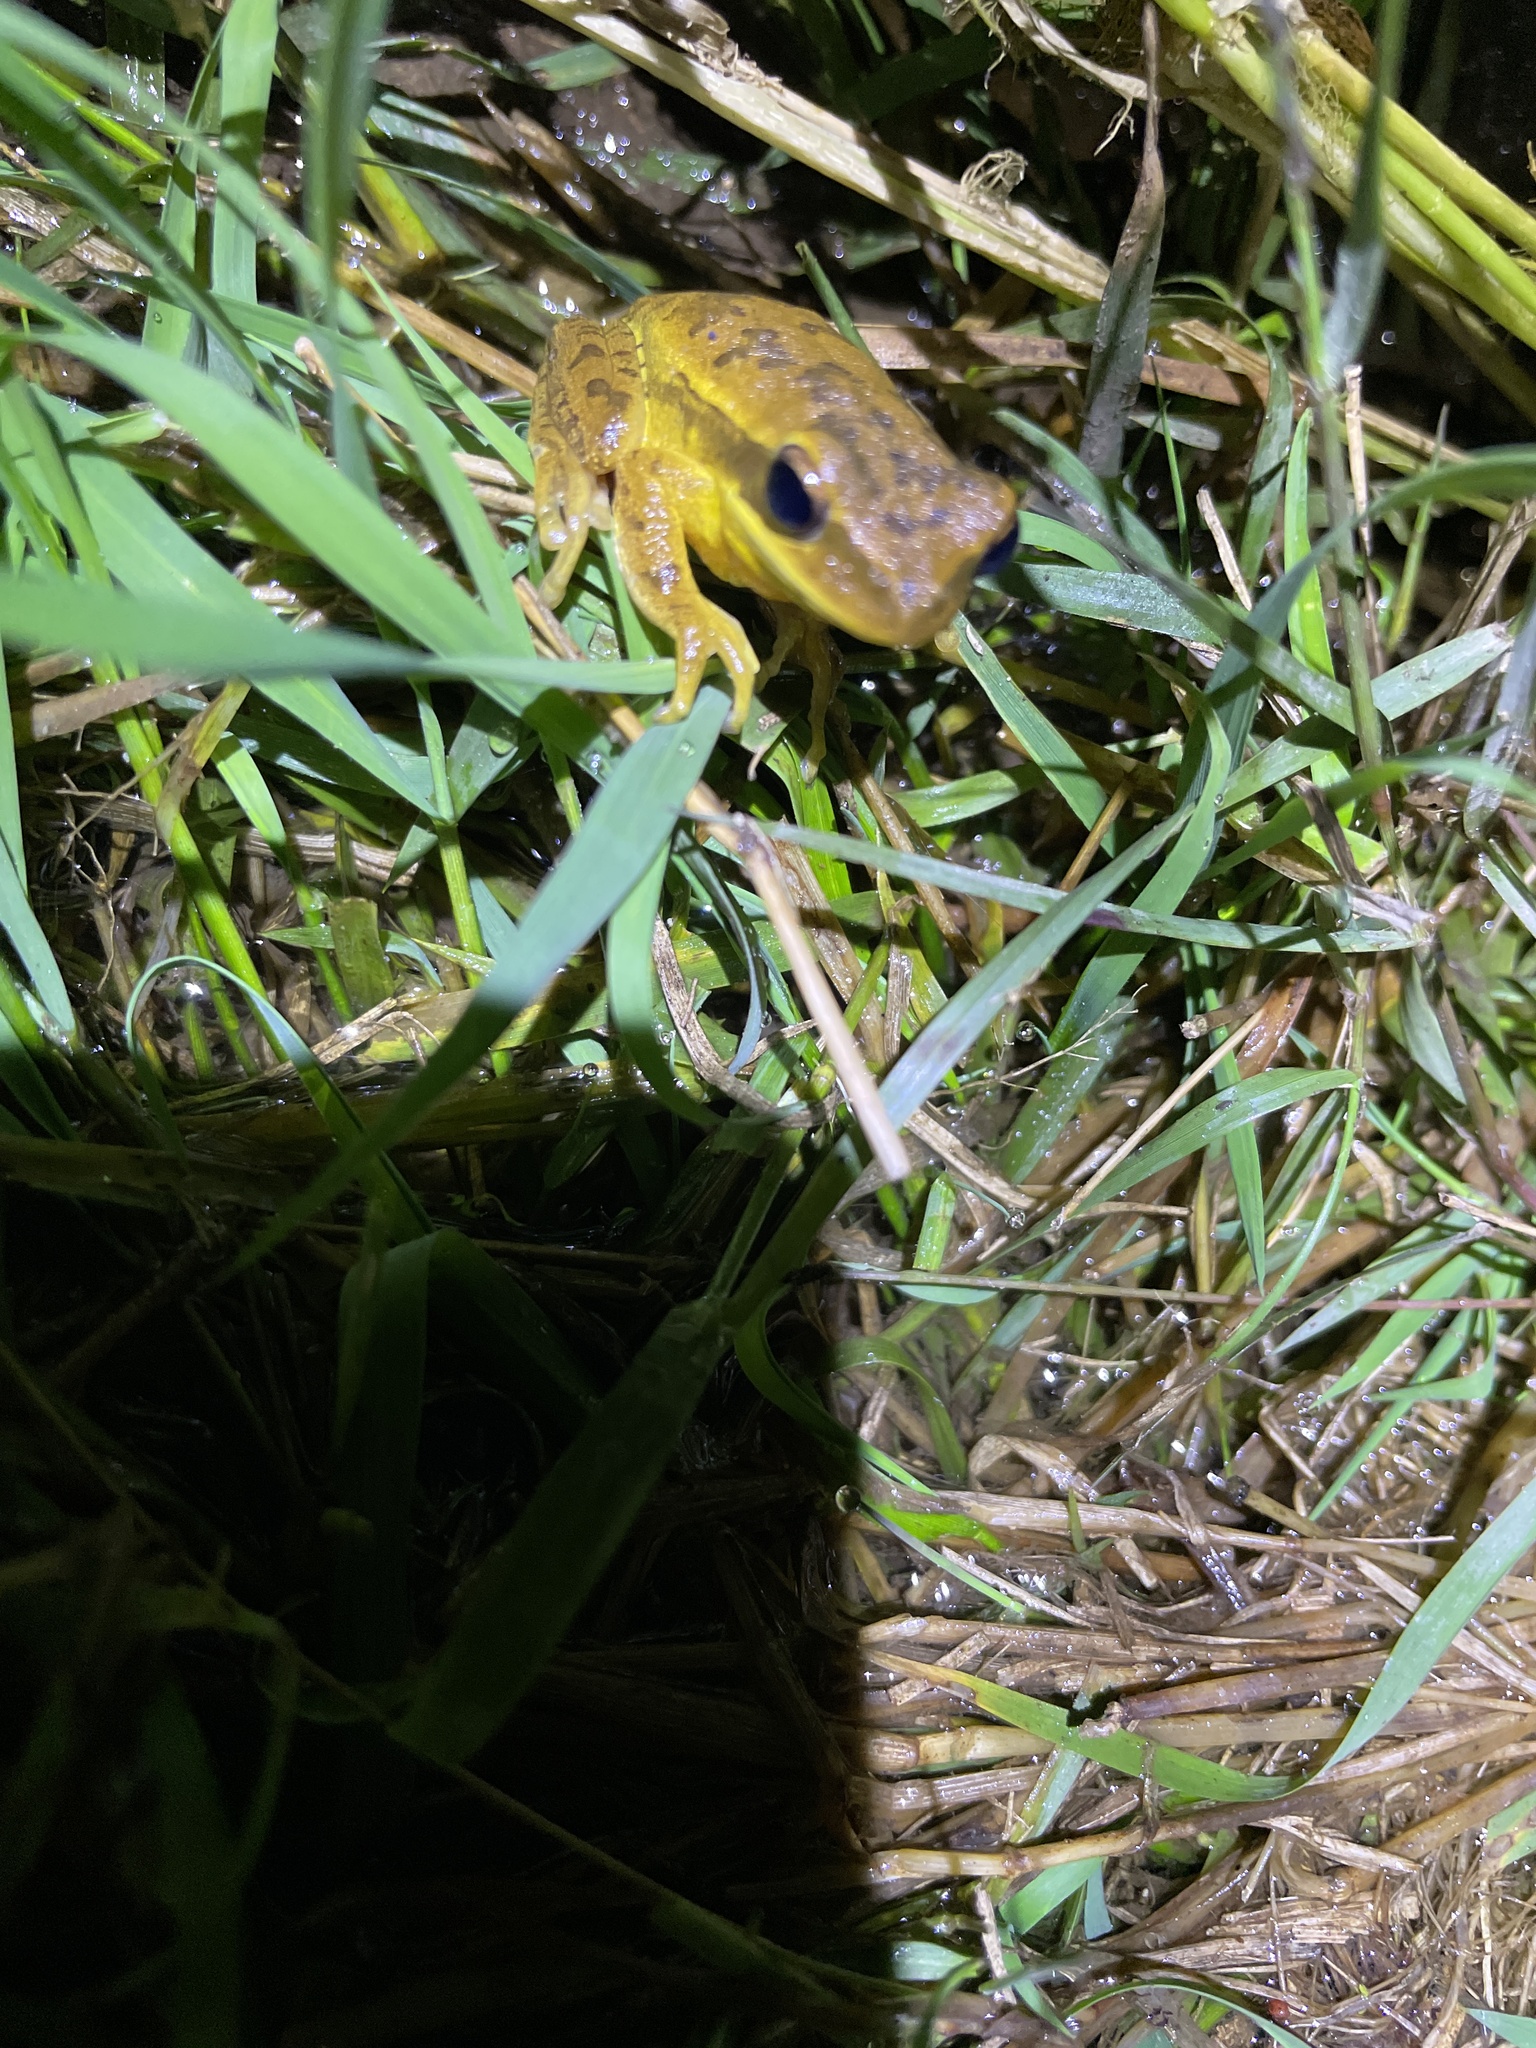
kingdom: Animalia
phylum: Chordata
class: Amphibia
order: Anura
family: Hylidae
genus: Boana
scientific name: Boana pulchella
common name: Montevideo treefrog
